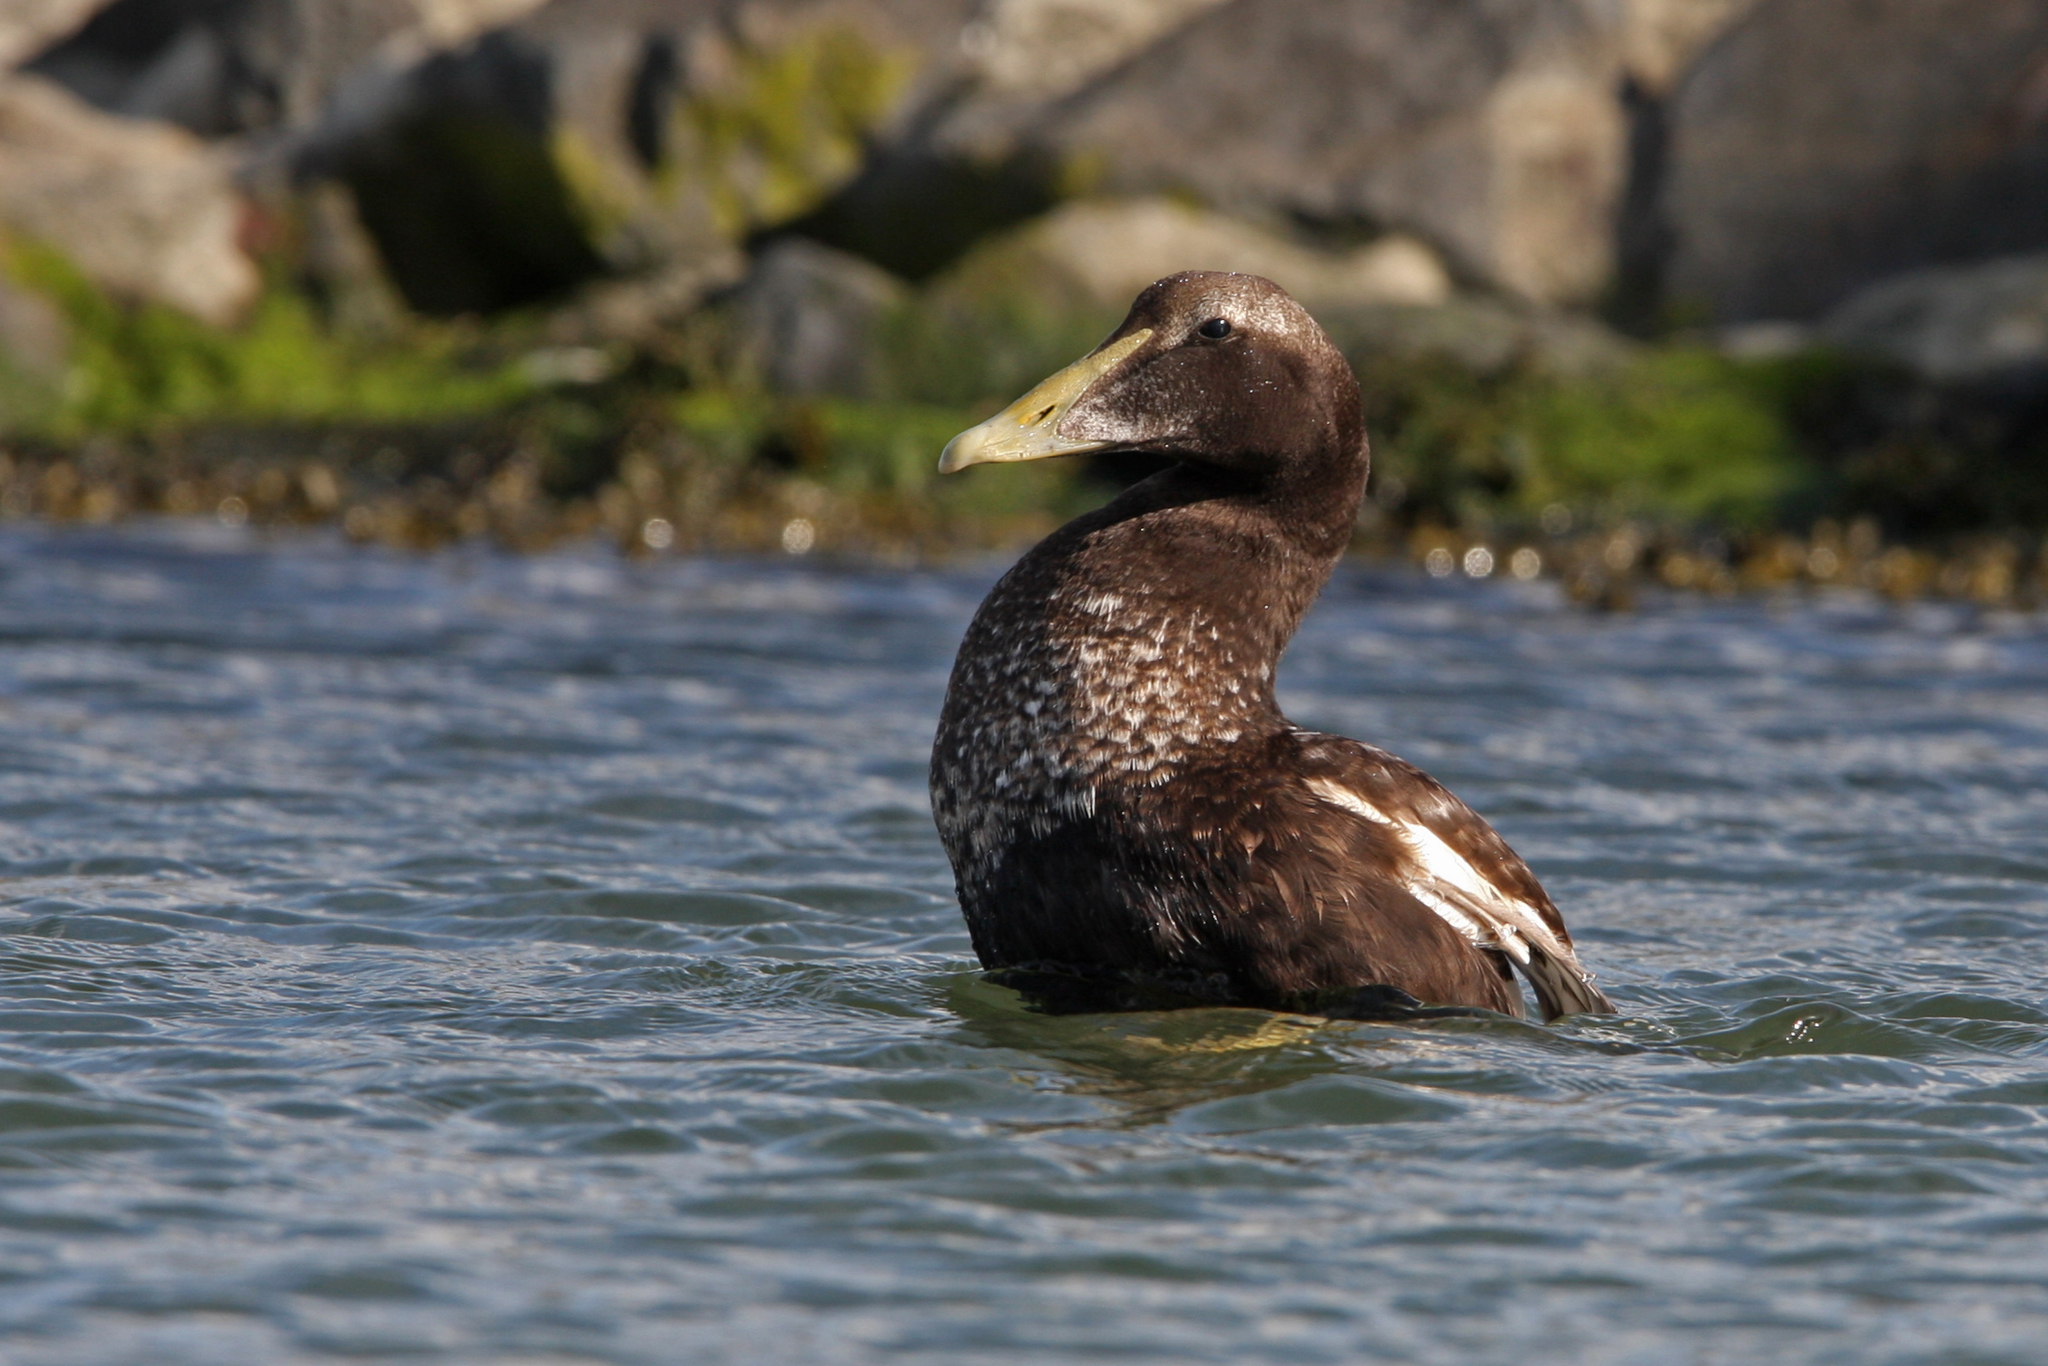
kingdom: Animalia
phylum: Chordata
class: Aves
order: Anseriformes
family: Anatidae
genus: Somateria
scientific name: Somateria mollissima
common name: Common eider
